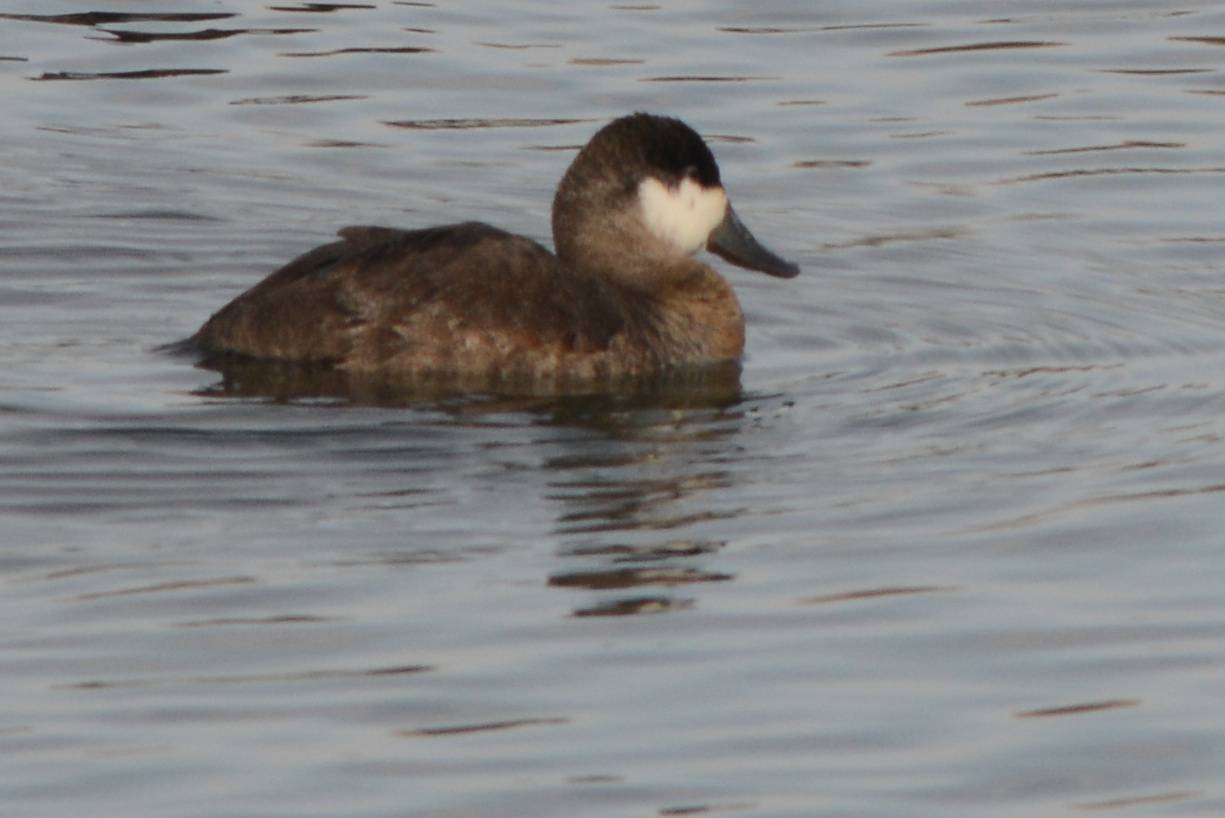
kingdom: Animalia
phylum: Chordata
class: Aves
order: Anseriformes
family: Anatidae
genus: Oxyura
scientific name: Oxyura jamaicensis
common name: Ruddy duck
